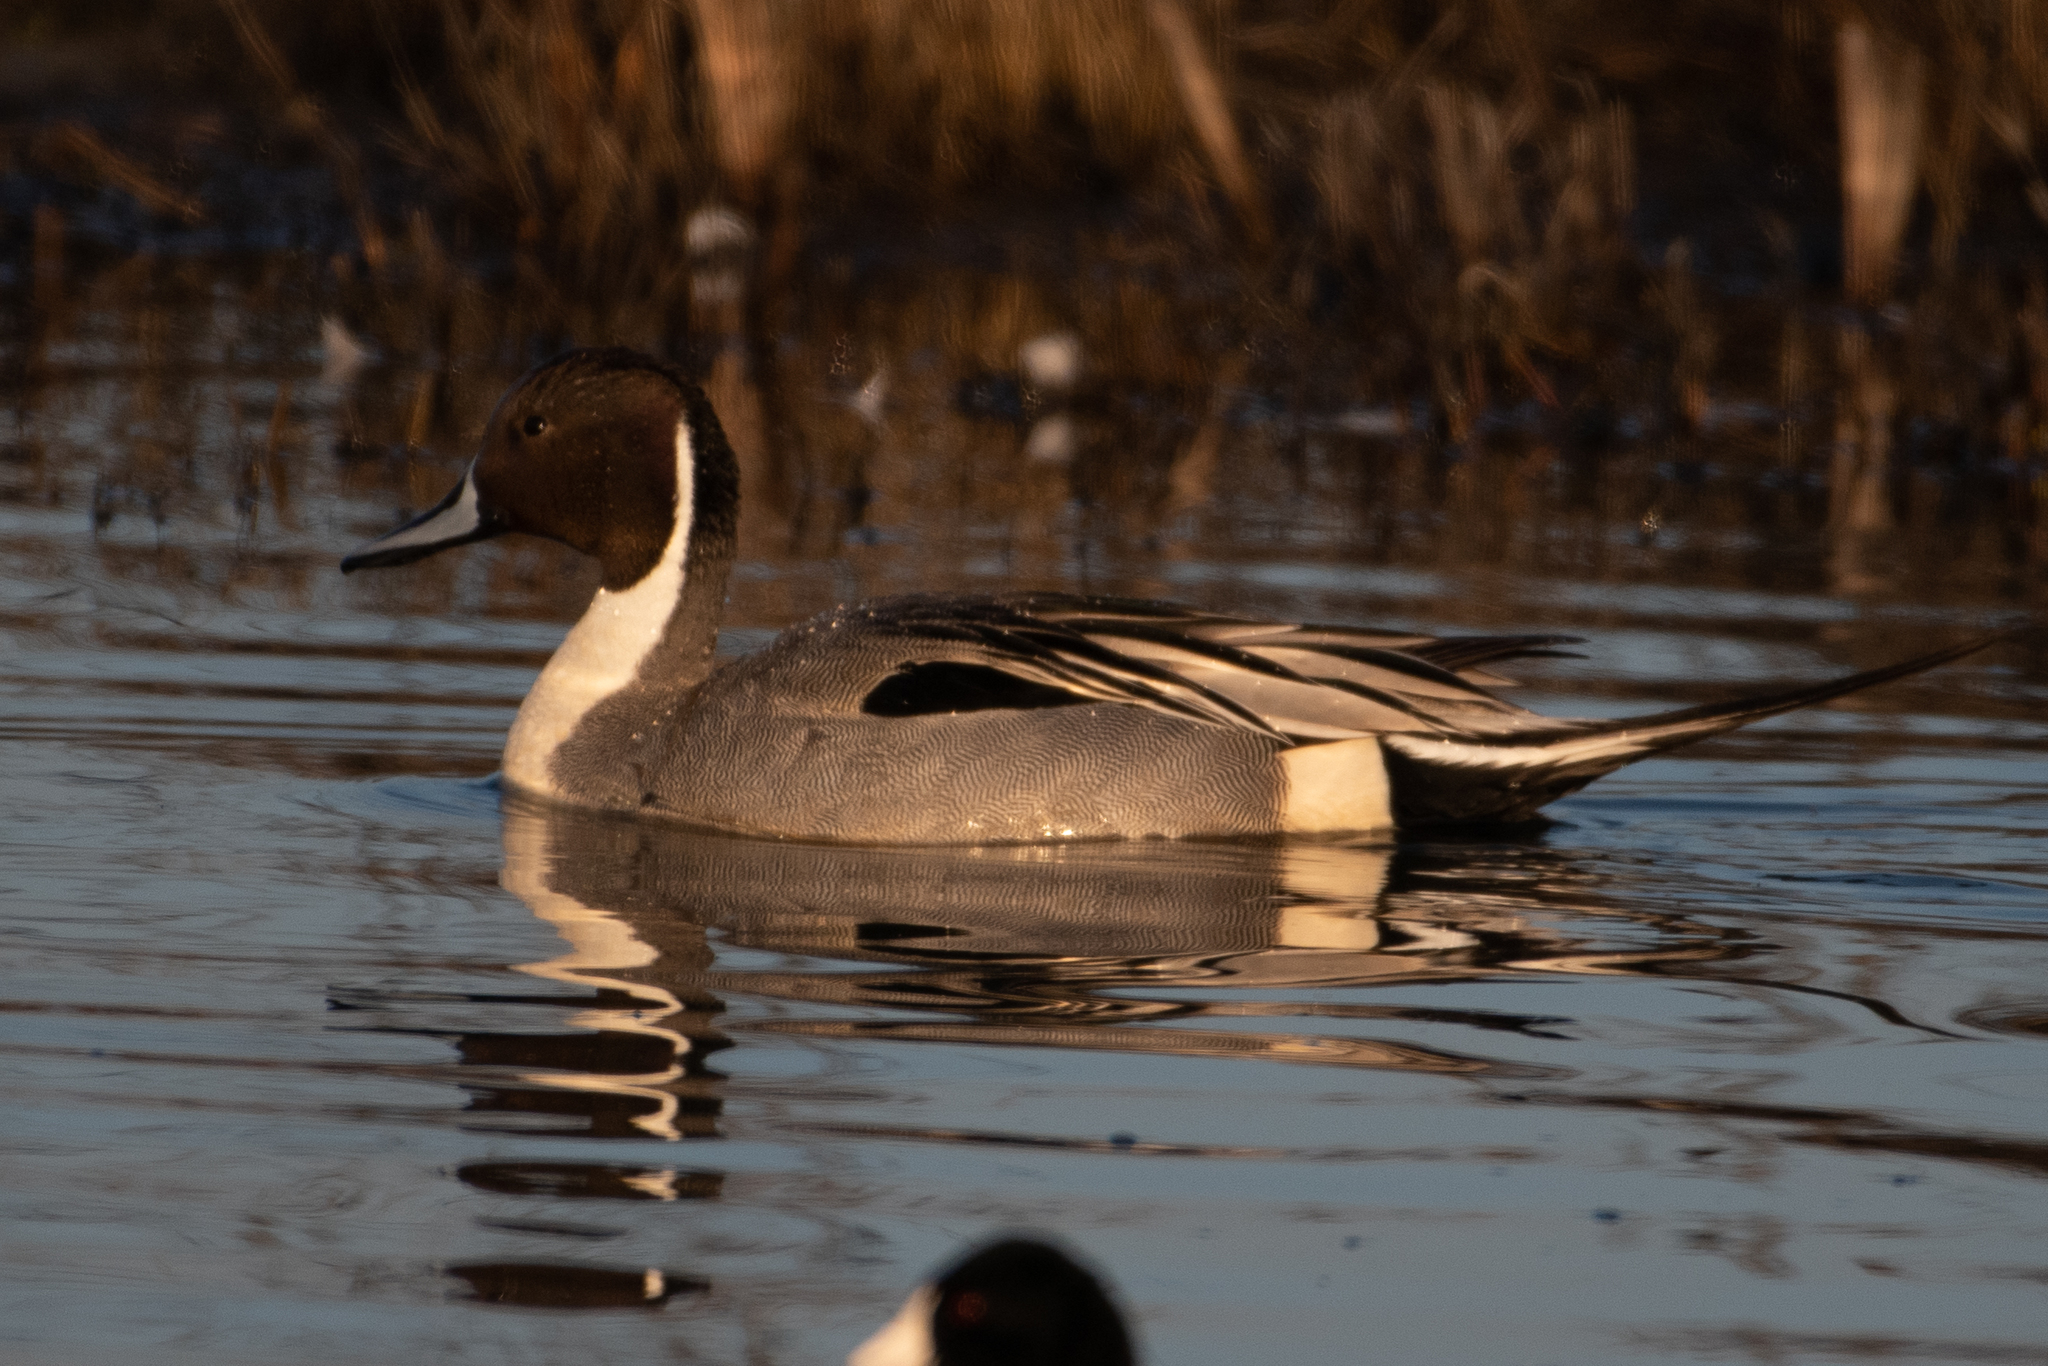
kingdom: Animalia
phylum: Chordata
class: Aves
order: Anseriformes
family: Anatidae
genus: Anas
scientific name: Anas acuta
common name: Northern pintail
